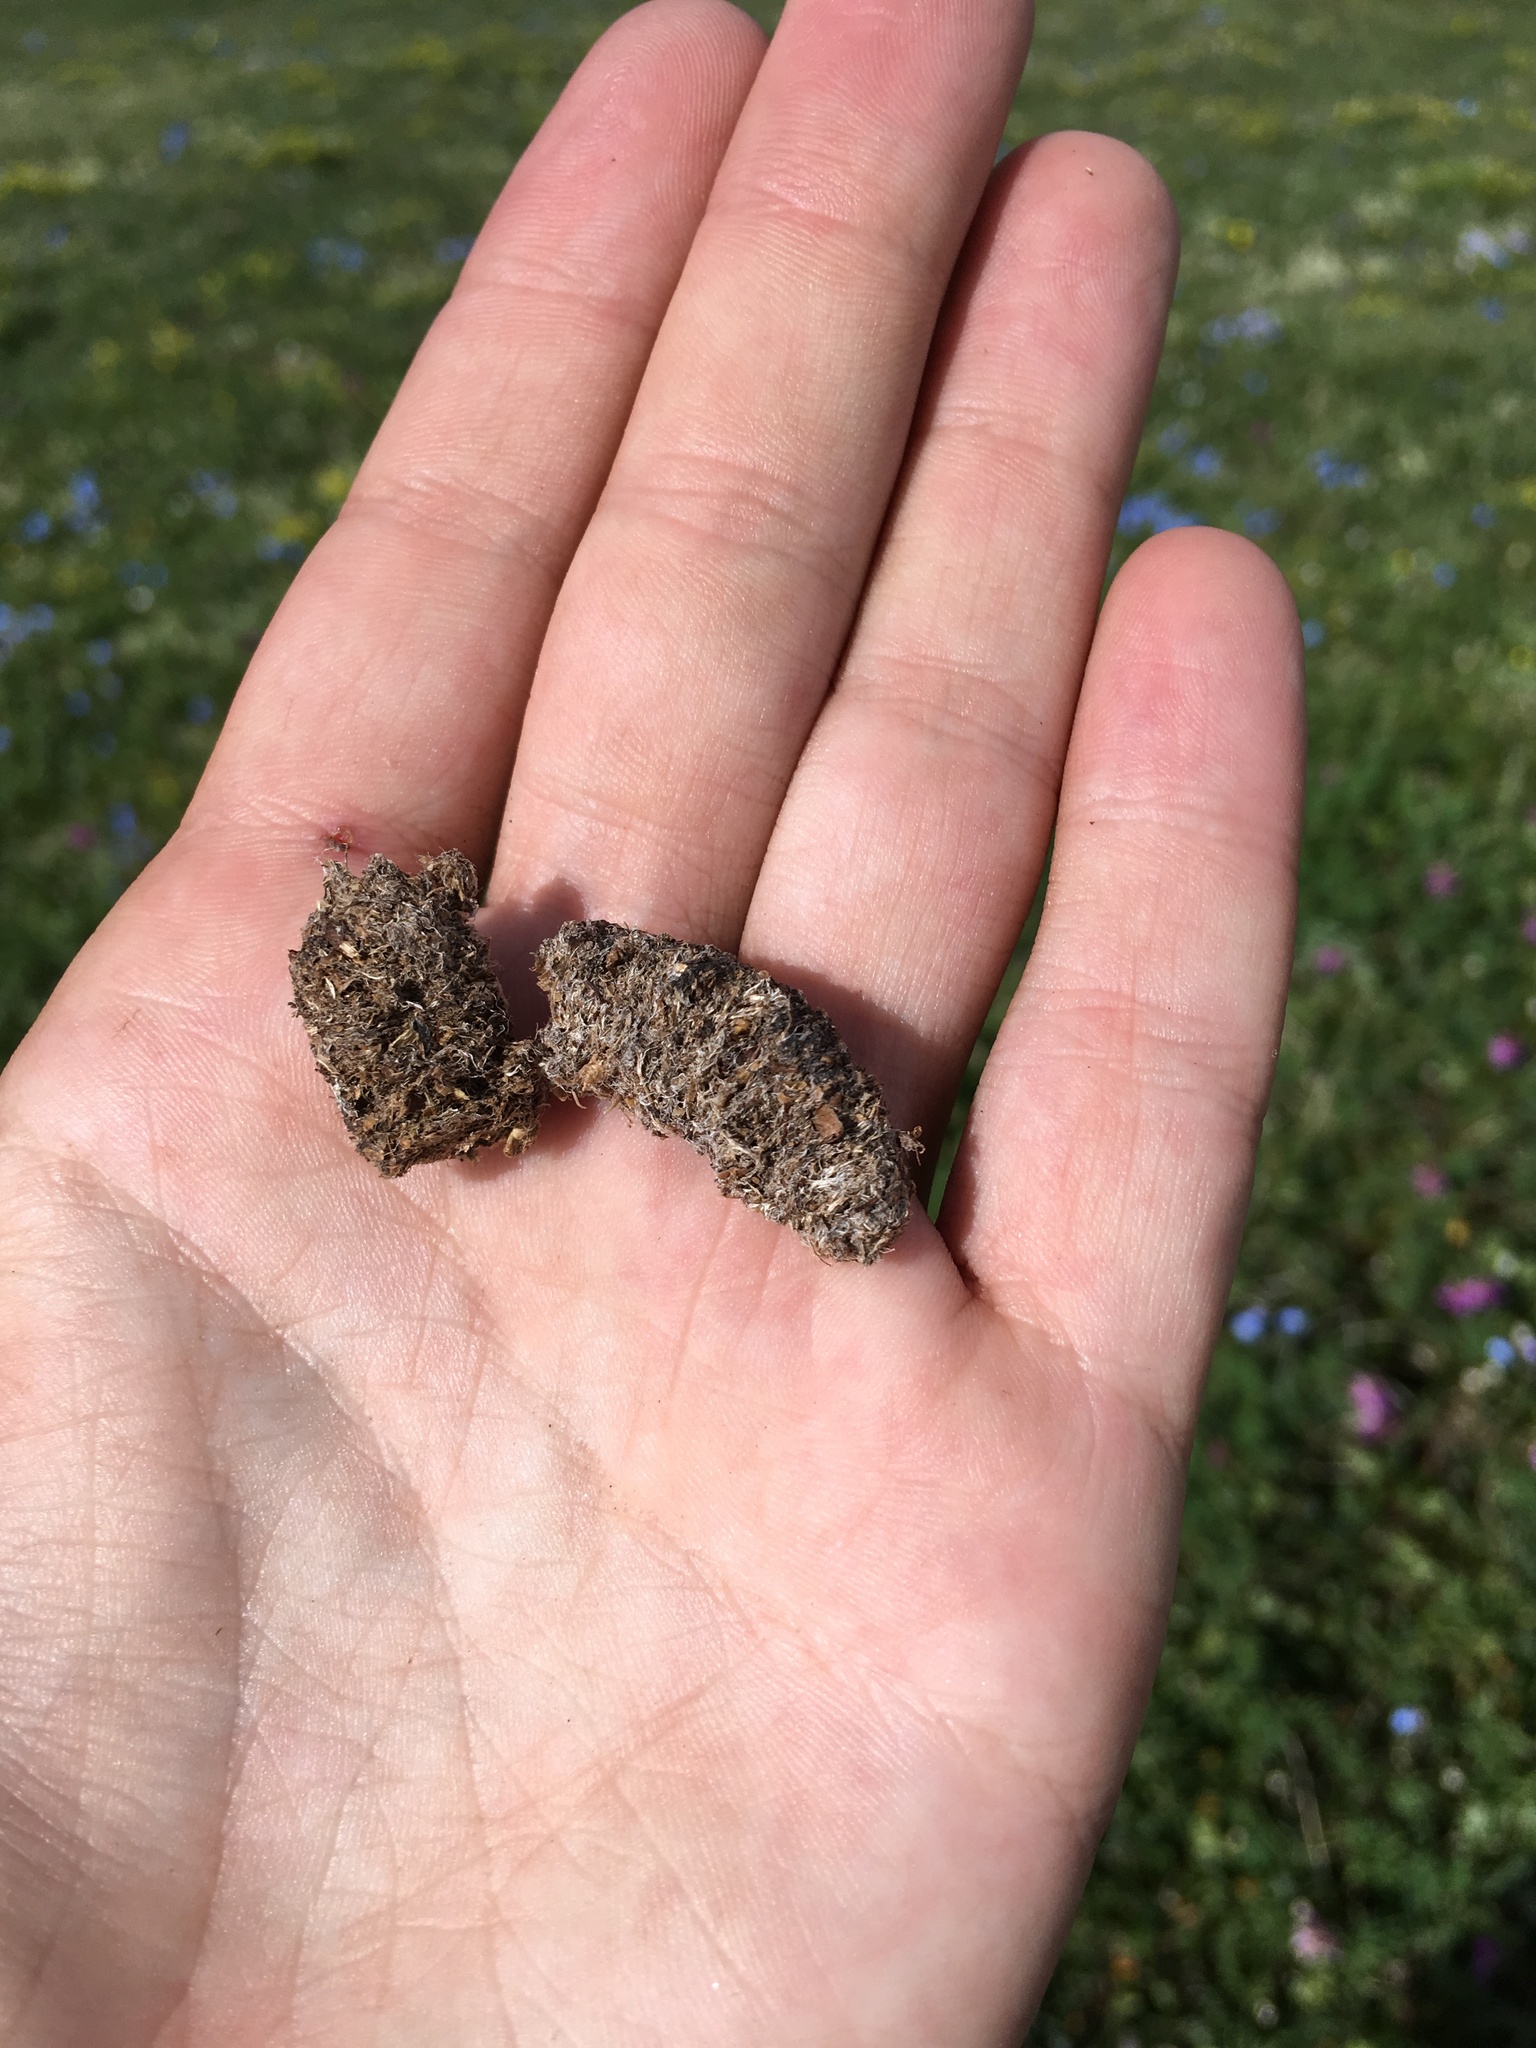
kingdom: Animalia
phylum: Chordata
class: Aves
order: Galliformes
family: Phasianidae
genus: Tetraogallus
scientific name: Tetraogallus altaicus
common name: Altai snowcock
